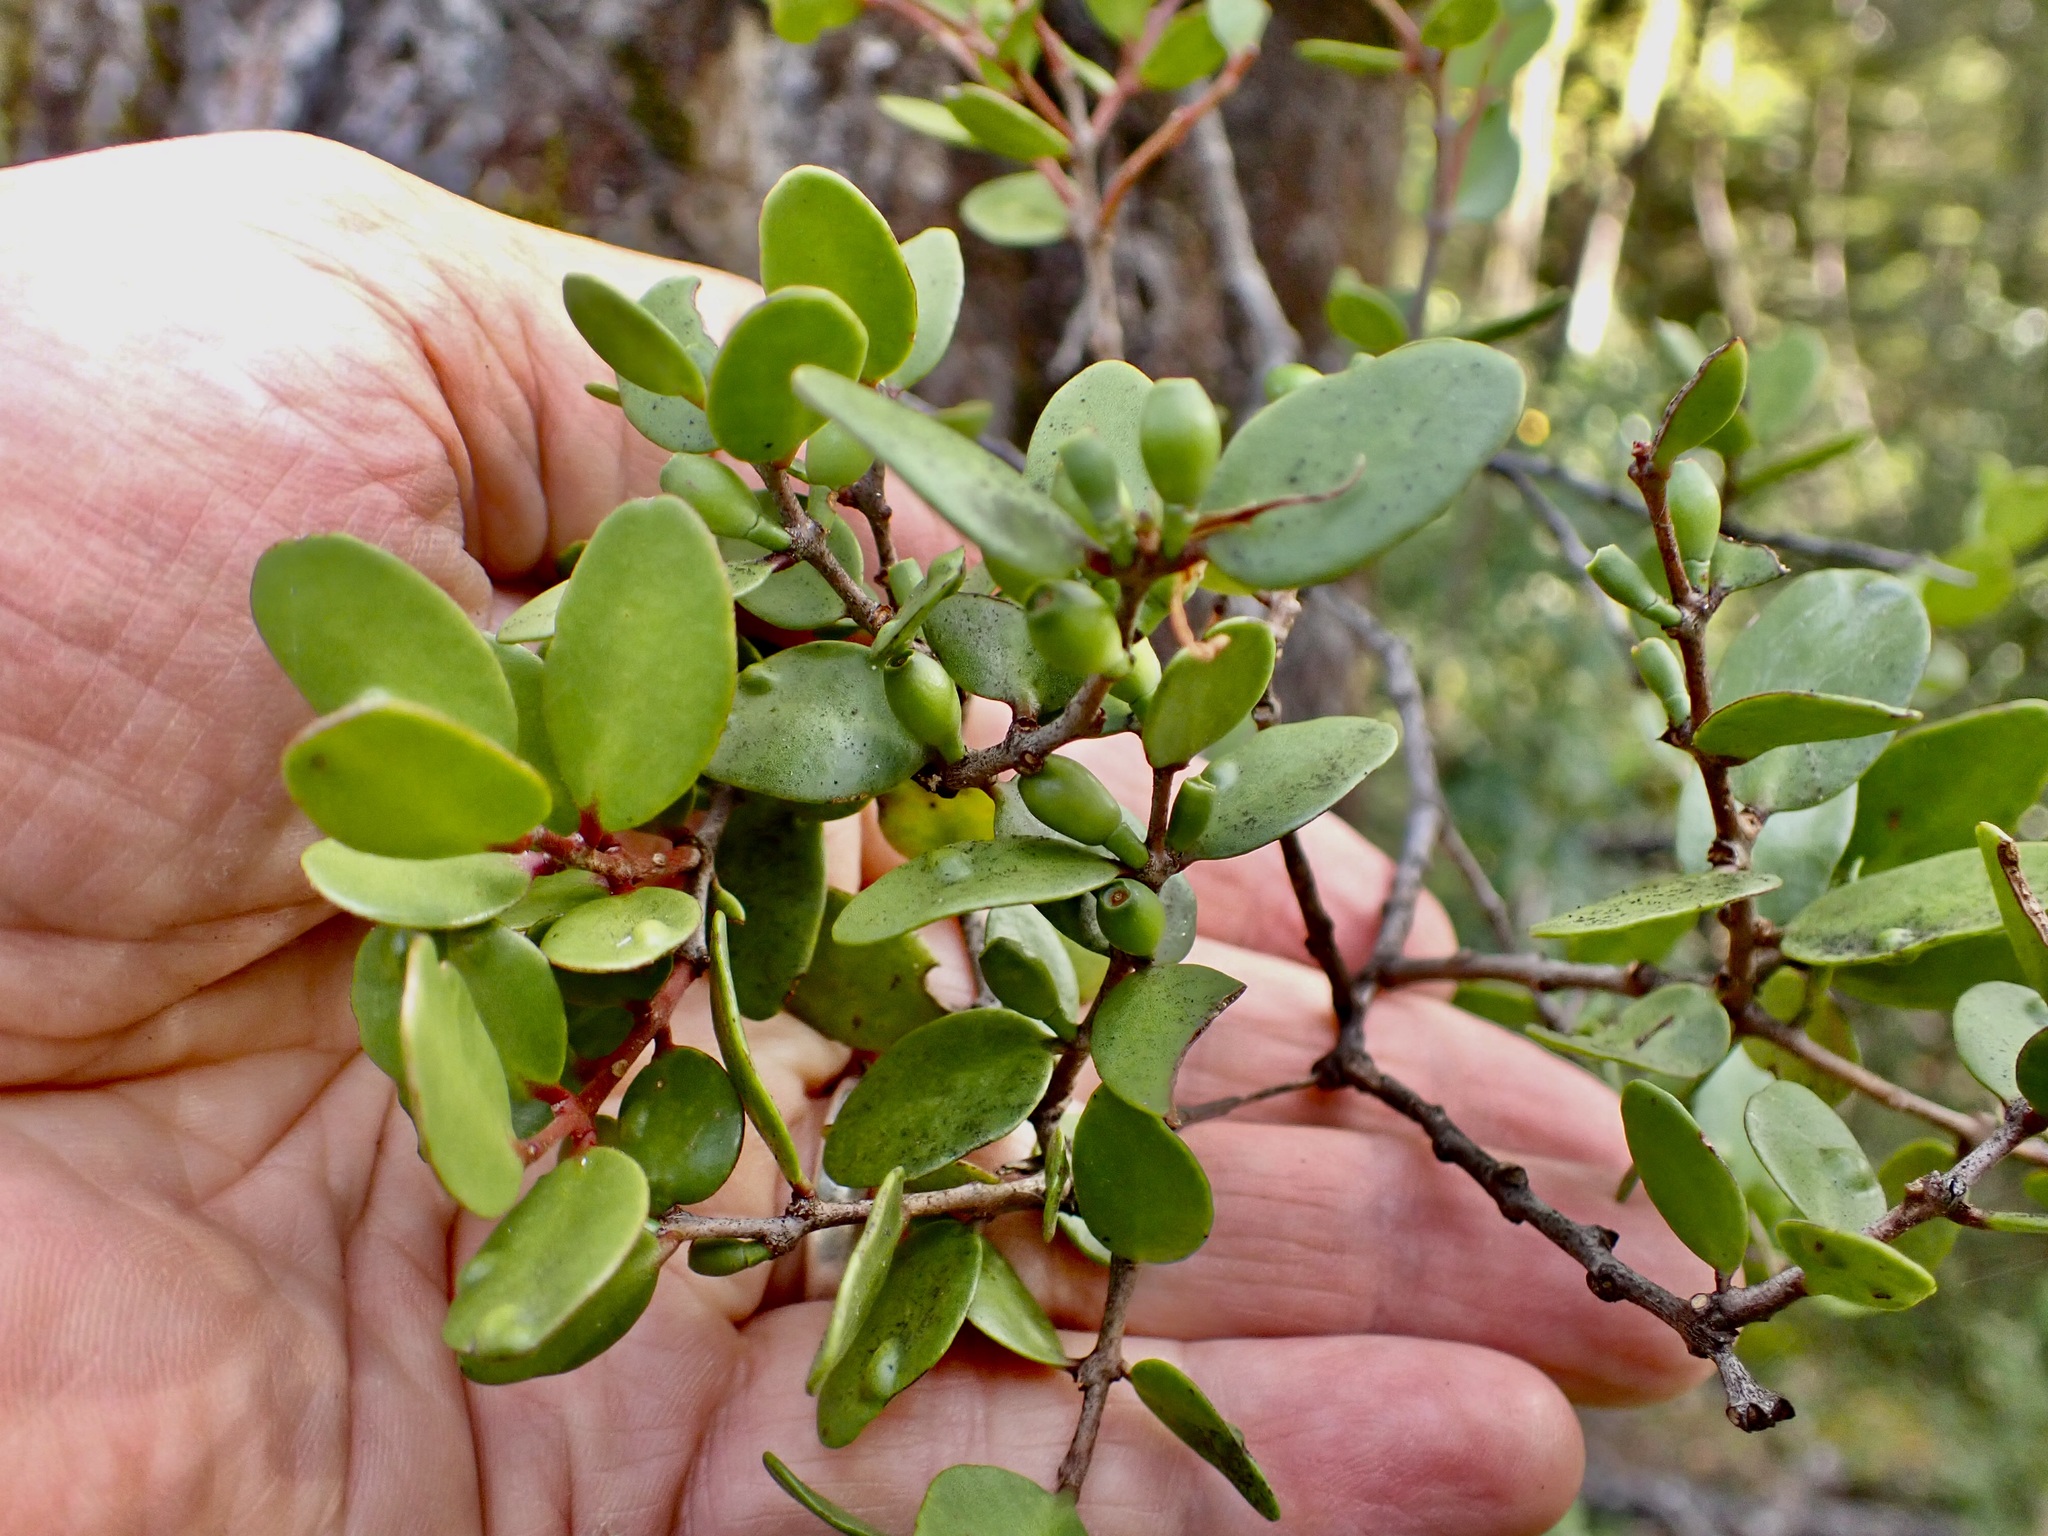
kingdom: Plantae
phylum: Tracheophyta
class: Magnoliopsida
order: Santalales
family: Loranthaceae
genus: Peraxilla
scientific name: Peraxilla tetrapetala
